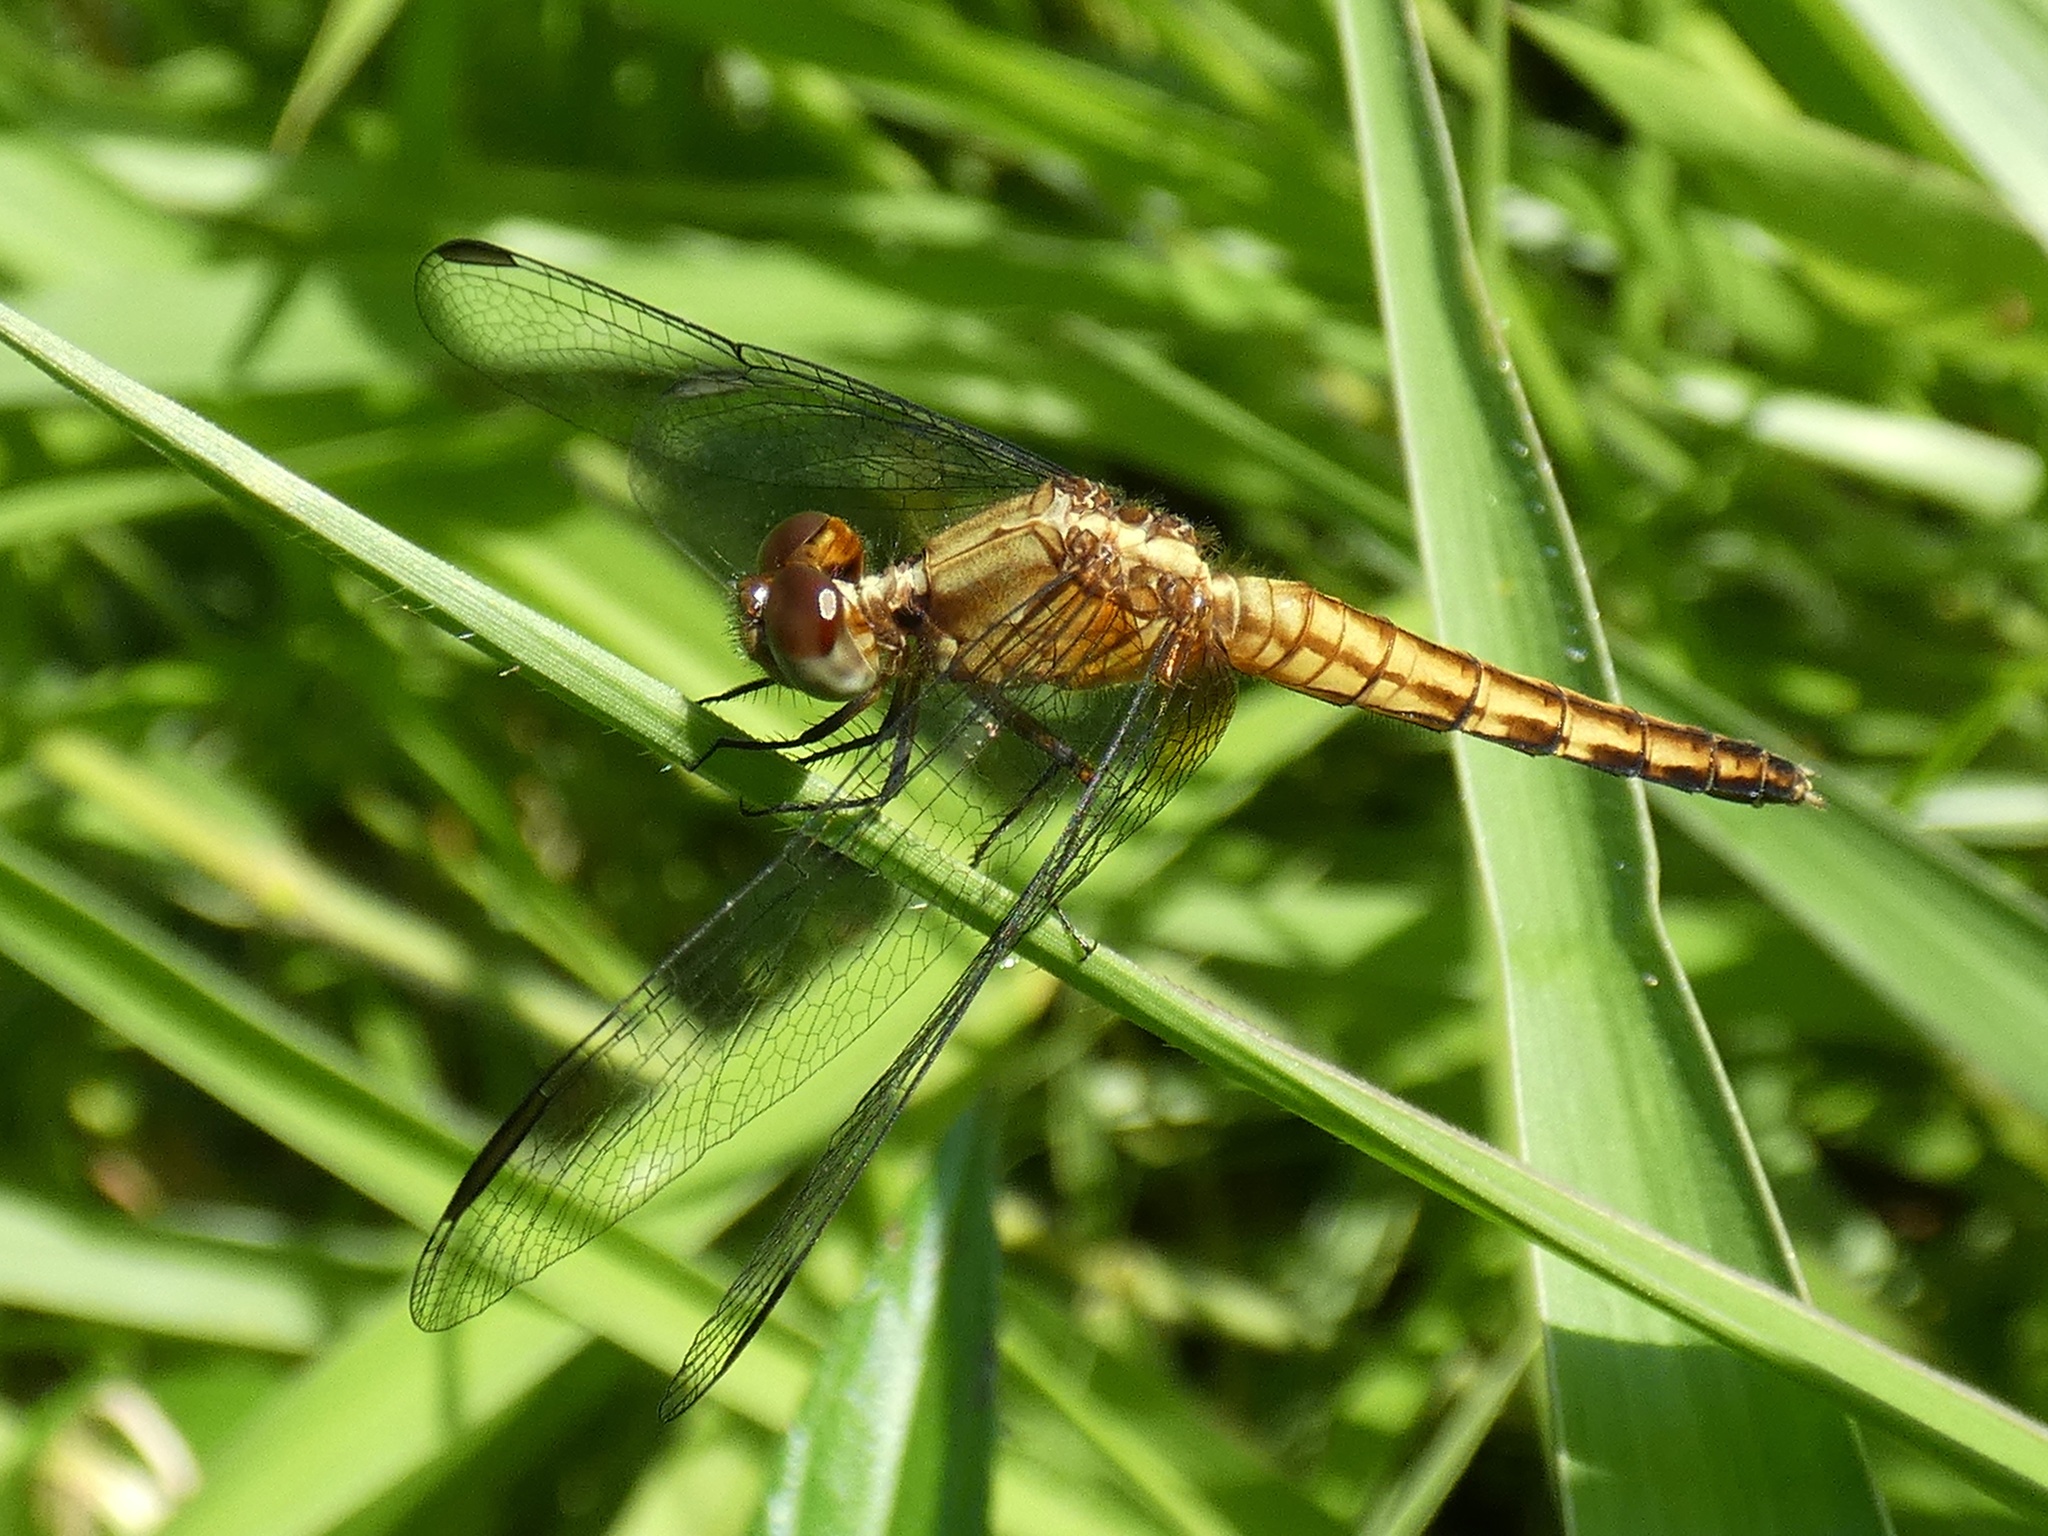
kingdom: Animalia
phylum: Arthropoda
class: Insecta
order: Odonata
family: Libellulidae
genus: Erythrodiplax
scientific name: Erythrodiplax fusca
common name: Red-faced dragonlet
